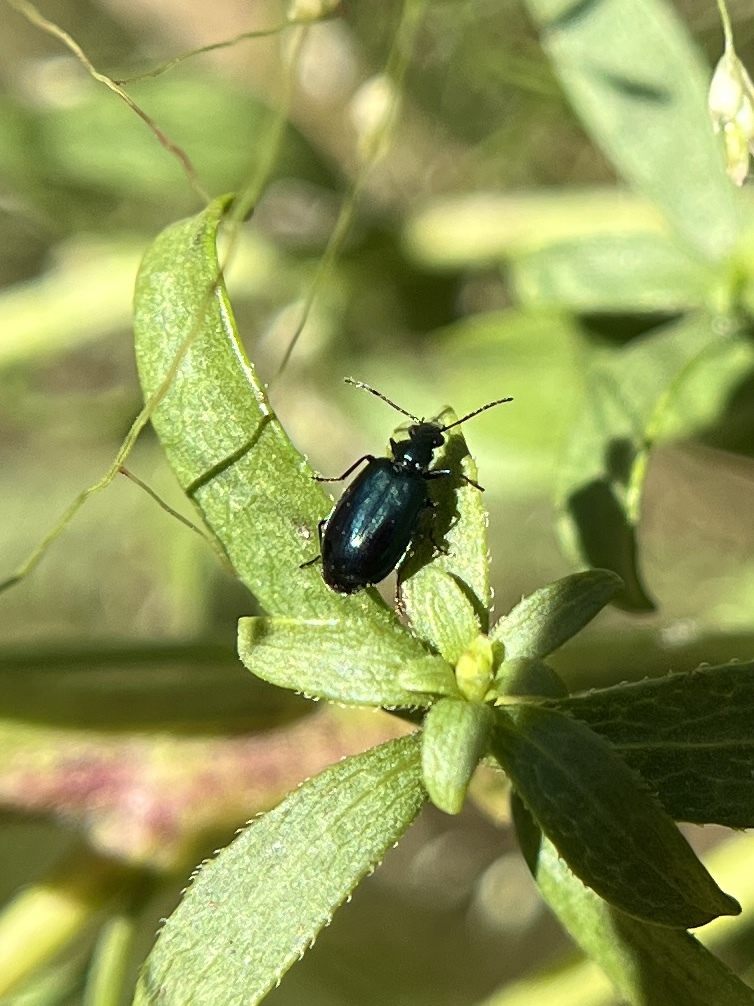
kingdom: Animalia
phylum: Arthropoda
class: Insecta
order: Coleoptera
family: Carabidae
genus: Lebia
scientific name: Lebia viridis
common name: Flower lebia beetle
